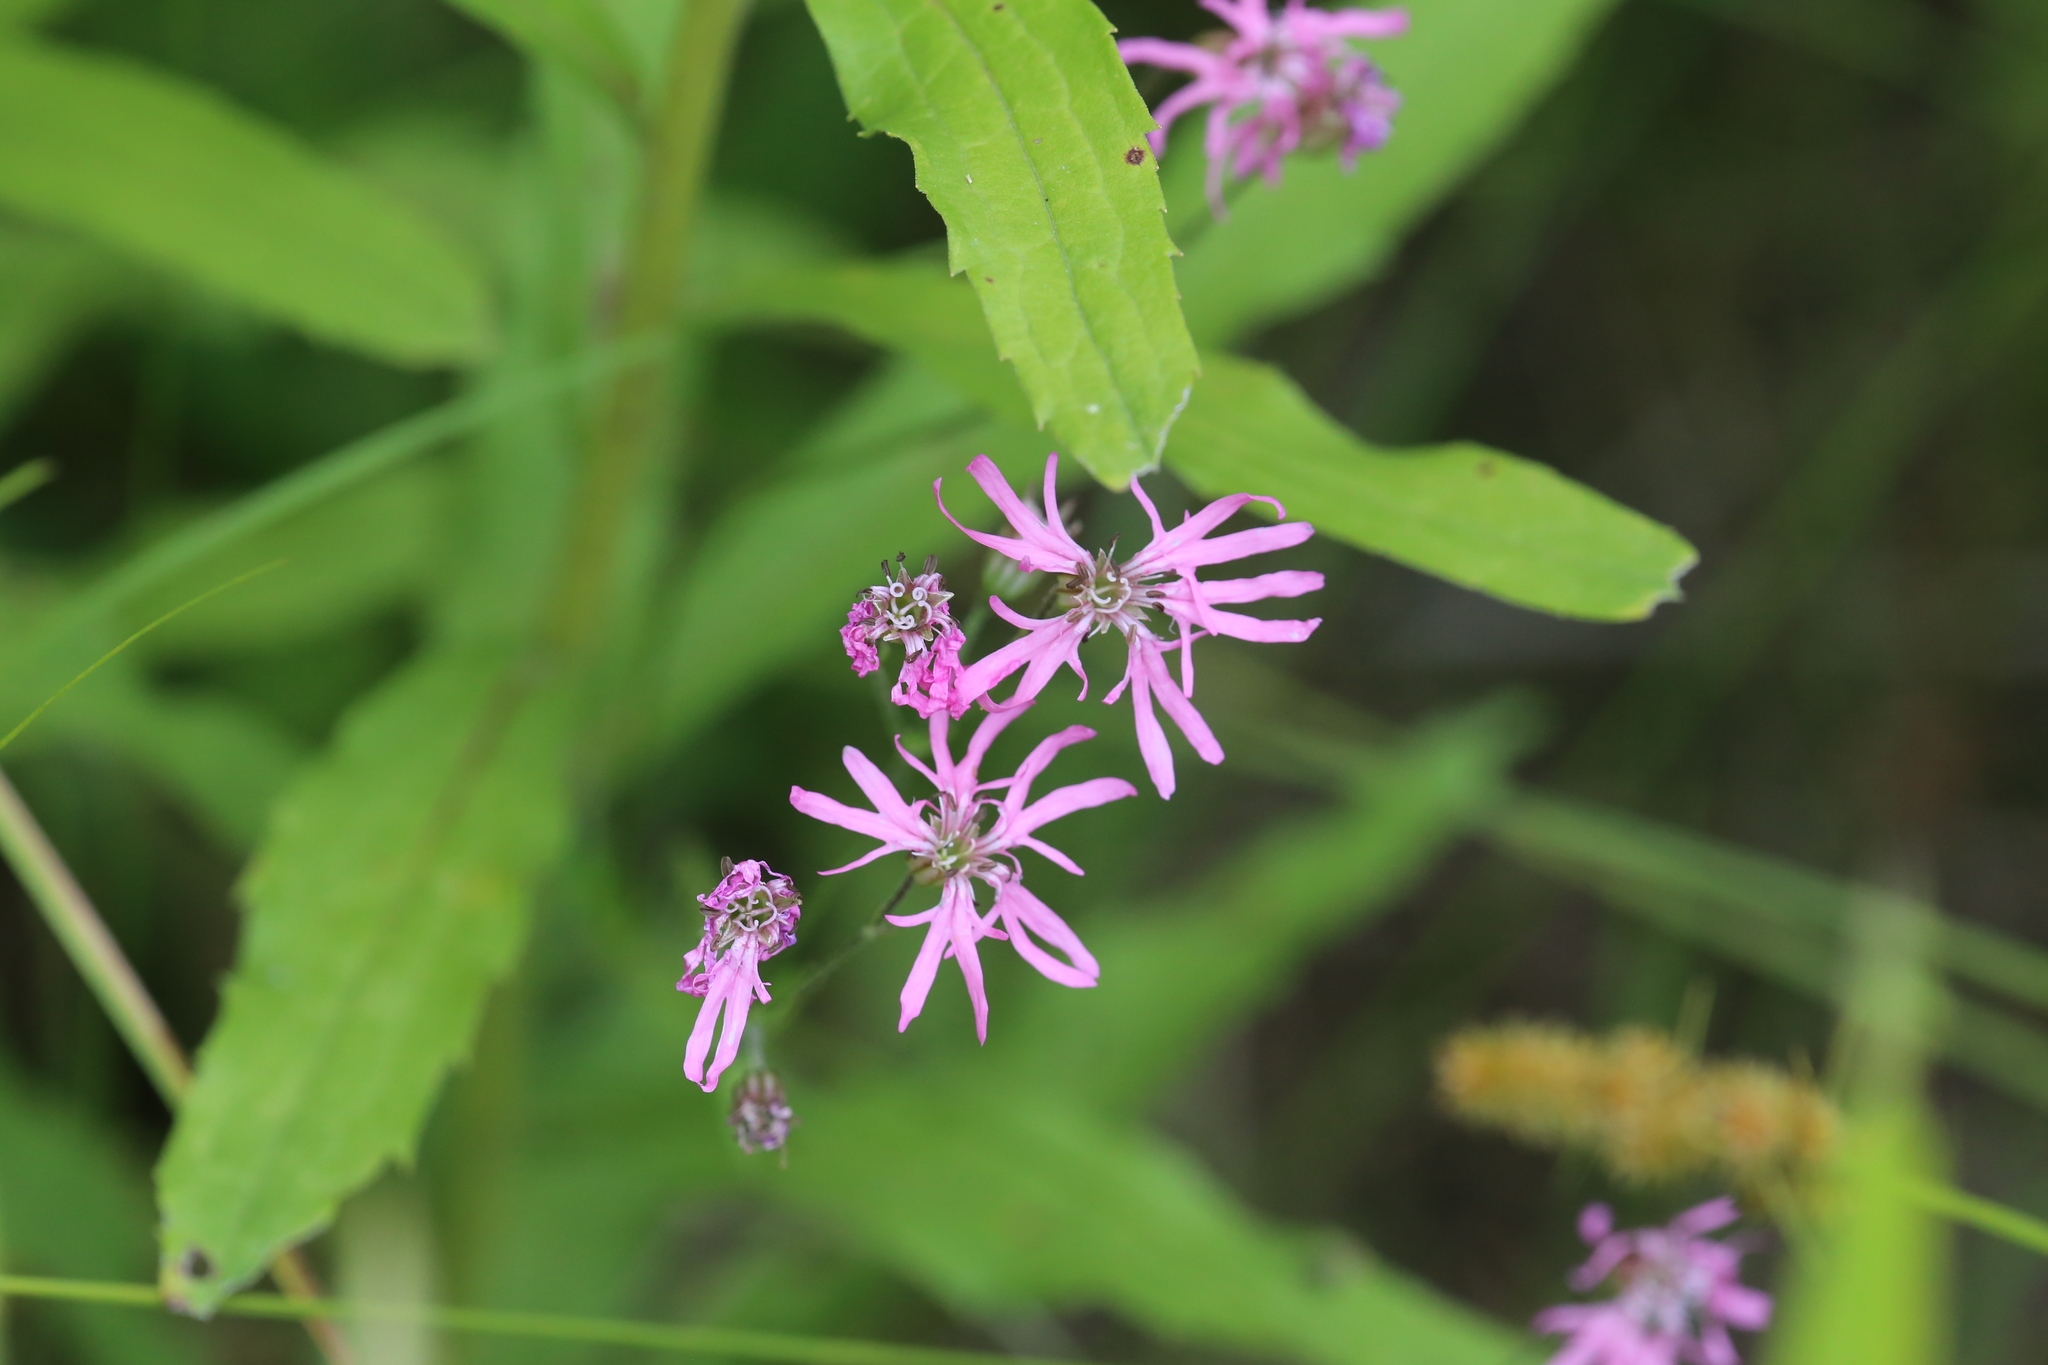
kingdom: Plantae
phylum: Tracheophyta
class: Magnoliopsida
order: Caryophyllales
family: Caryophyllaceae
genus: Silene
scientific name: Silene flos-cuculi
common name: Ragged-robin
